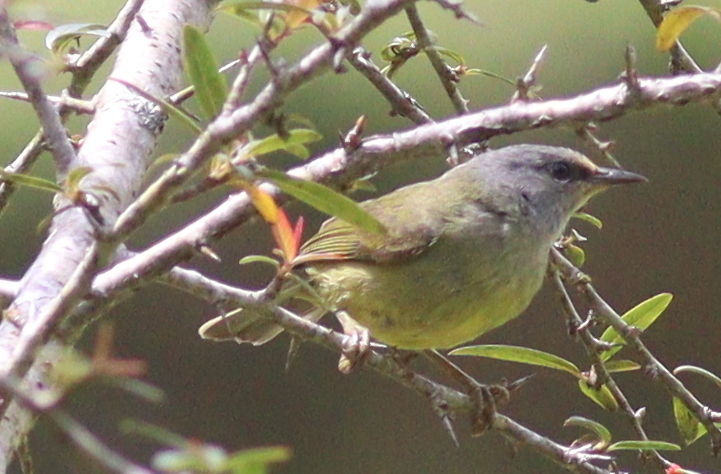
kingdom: Animalia
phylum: Chordata
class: Aves
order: Passeriformes
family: Zosteropidae
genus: Lophozosterops
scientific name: Lophozosterops javanicus
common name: Grey-throated ibon
